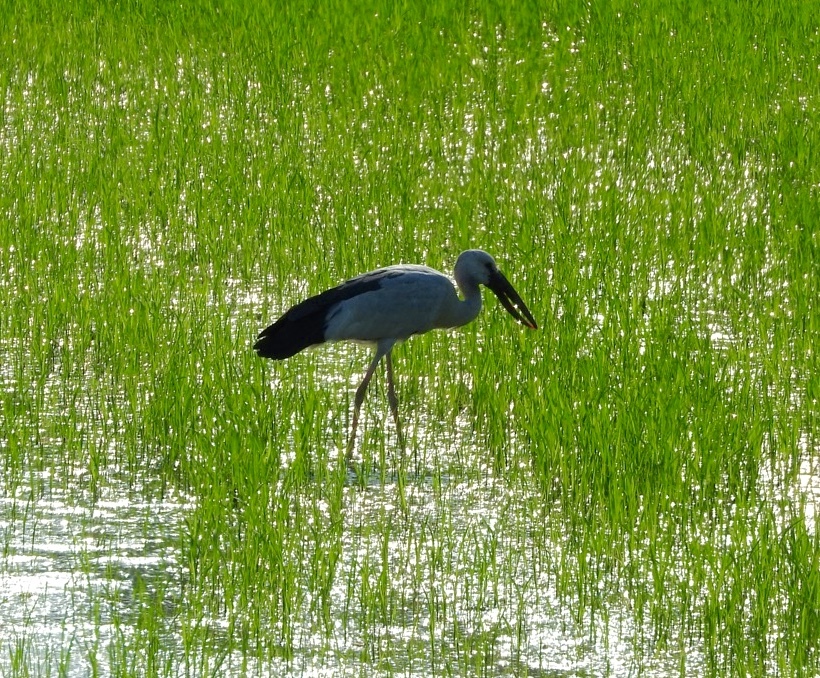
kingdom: Animalia
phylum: Chordata
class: Aves
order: Ciconiiformes
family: Ciconiidae
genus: Anastomus
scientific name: Anastomus oscitans
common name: Asian openbill
